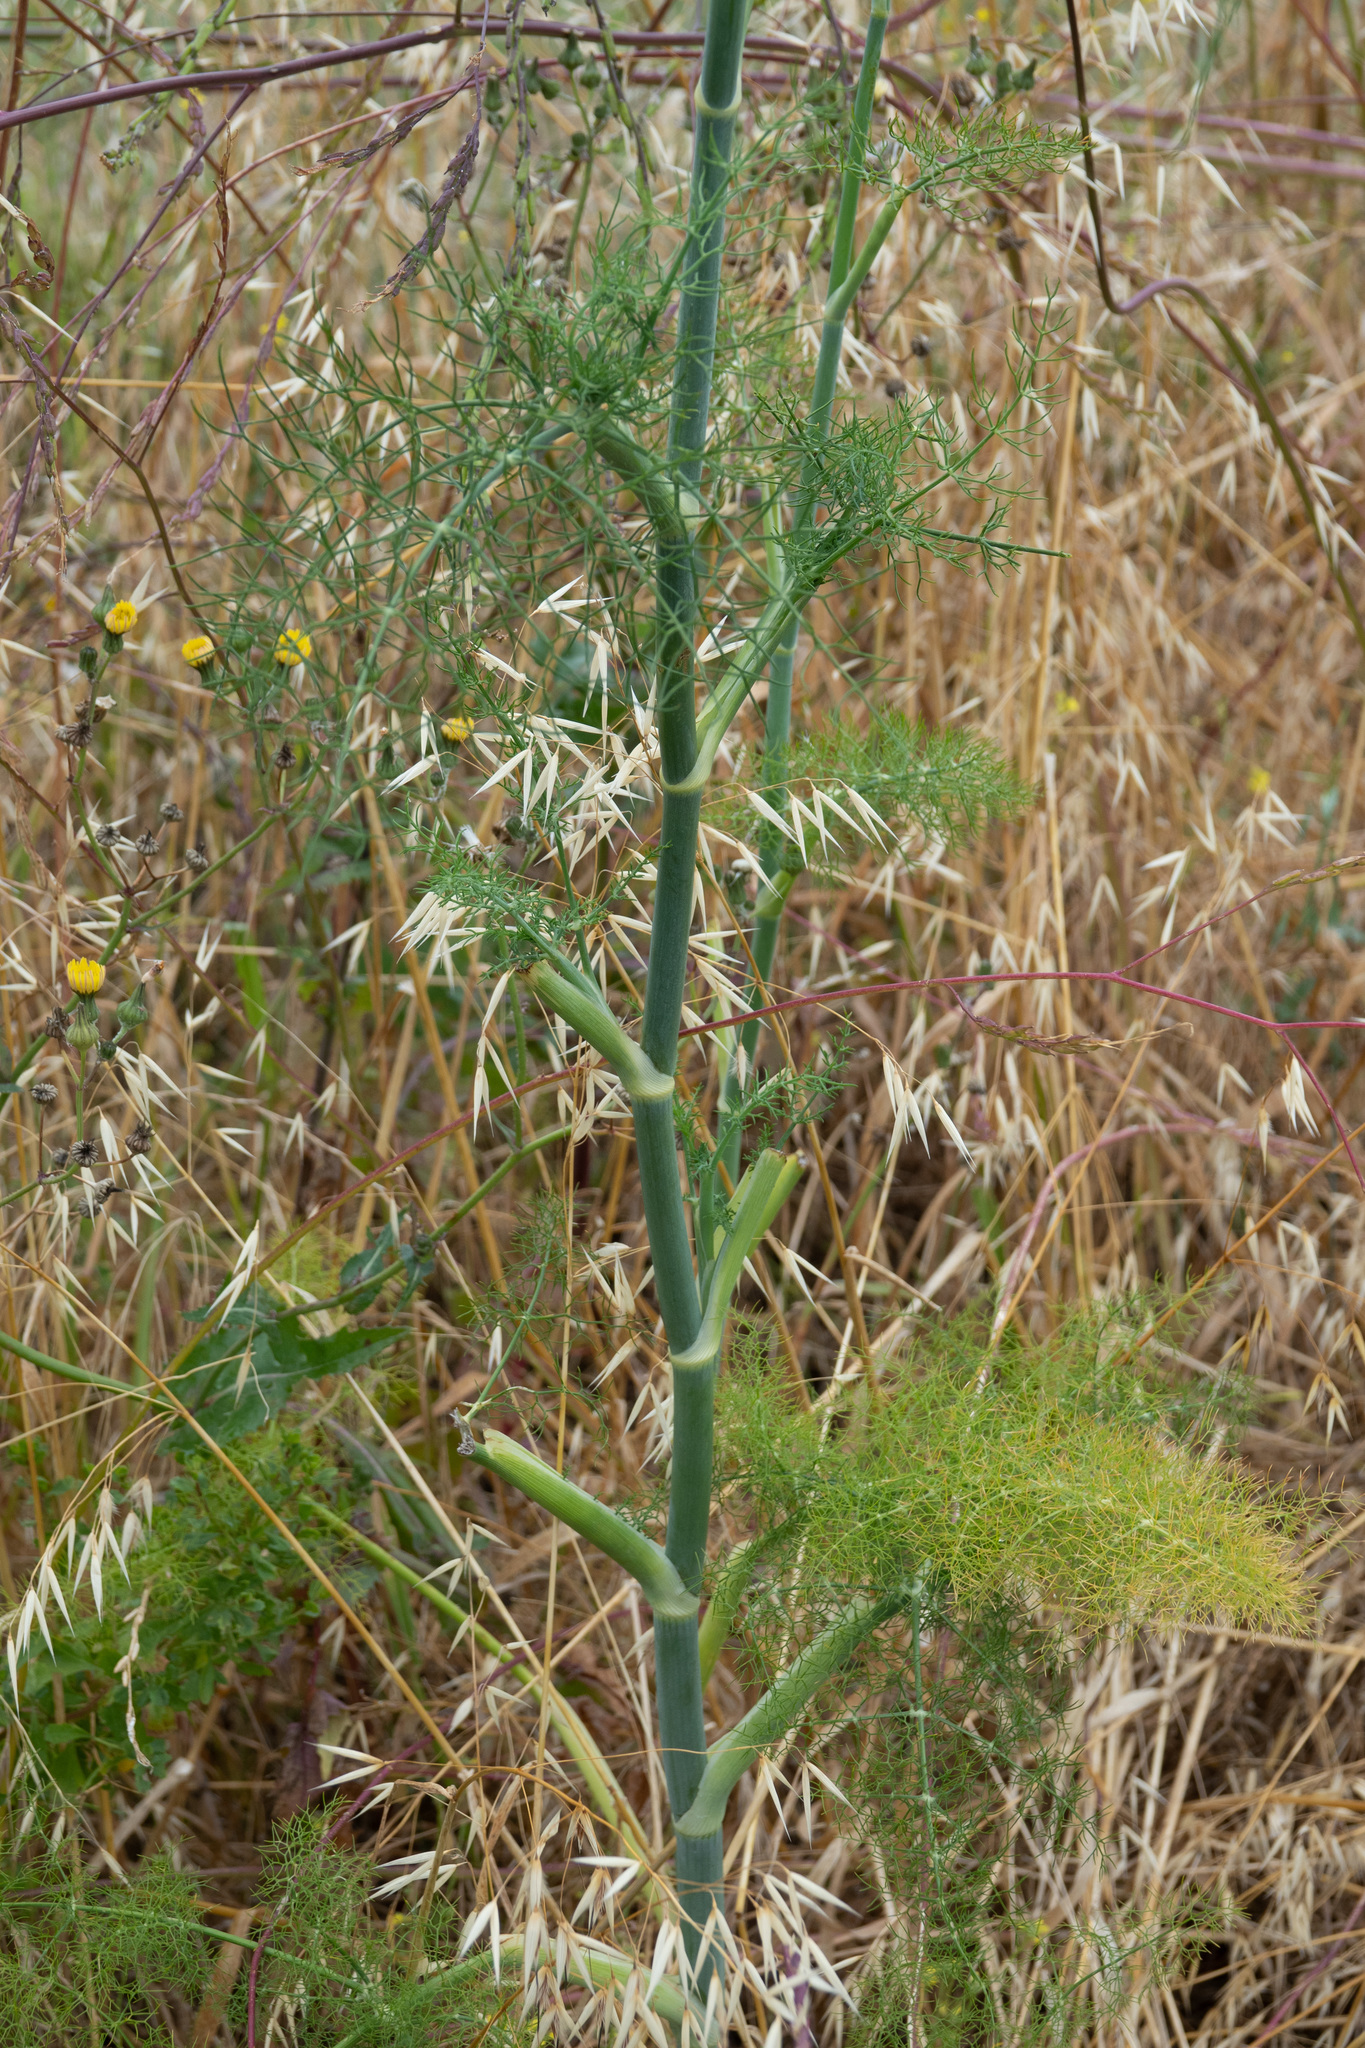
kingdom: Plantae
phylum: Tracheophyta
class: Magnoliopsida
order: Apiales
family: Apiaceae
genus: Foeniculum
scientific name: Foeniculum vulgare
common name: Fennel
